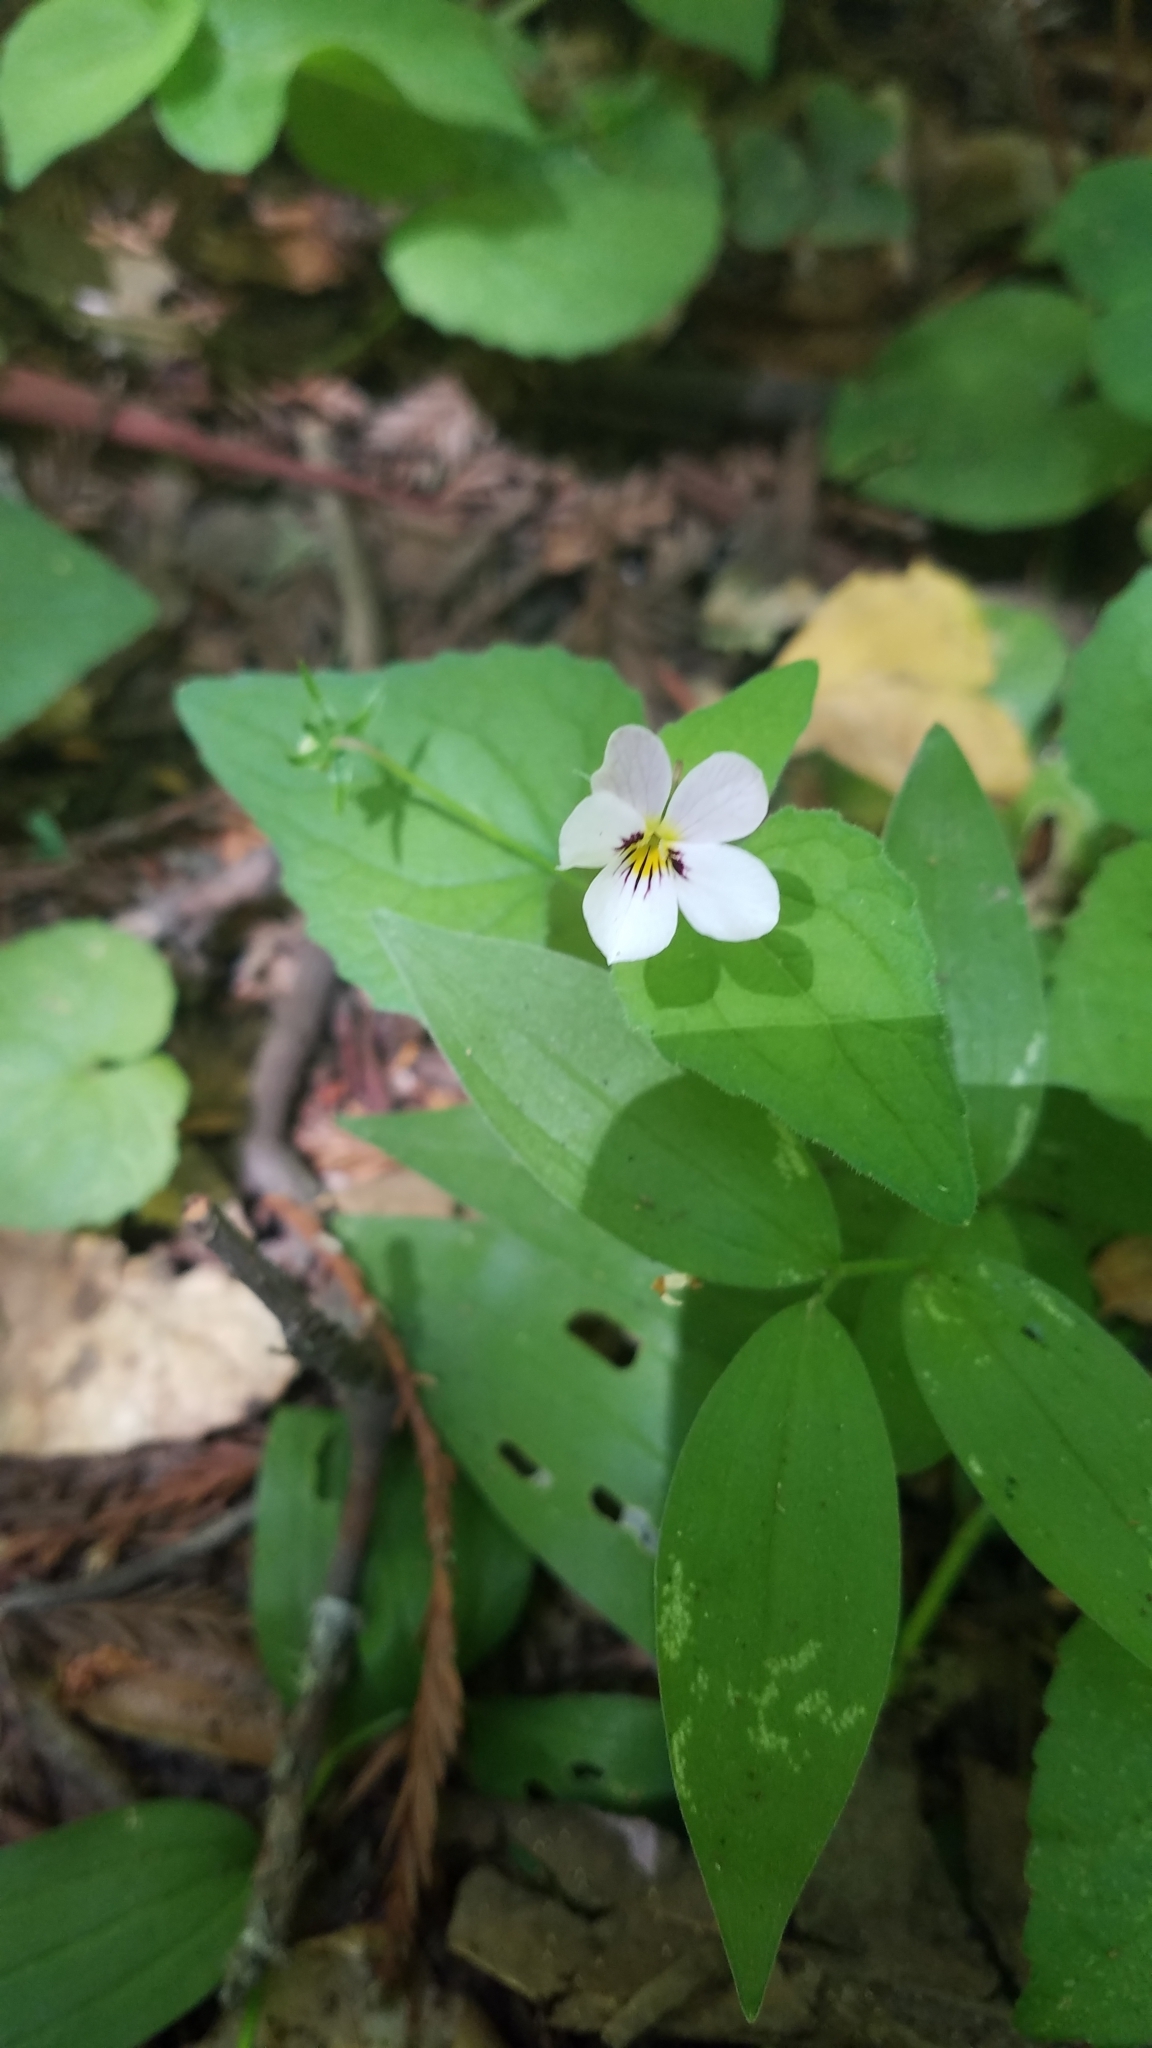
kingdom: Plantae
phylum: Tracheophyta
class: Magnoliopsida
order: Malpighiales
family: Violaceae
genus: Viola
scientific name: Viola ocellata
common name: Western heart's ease
